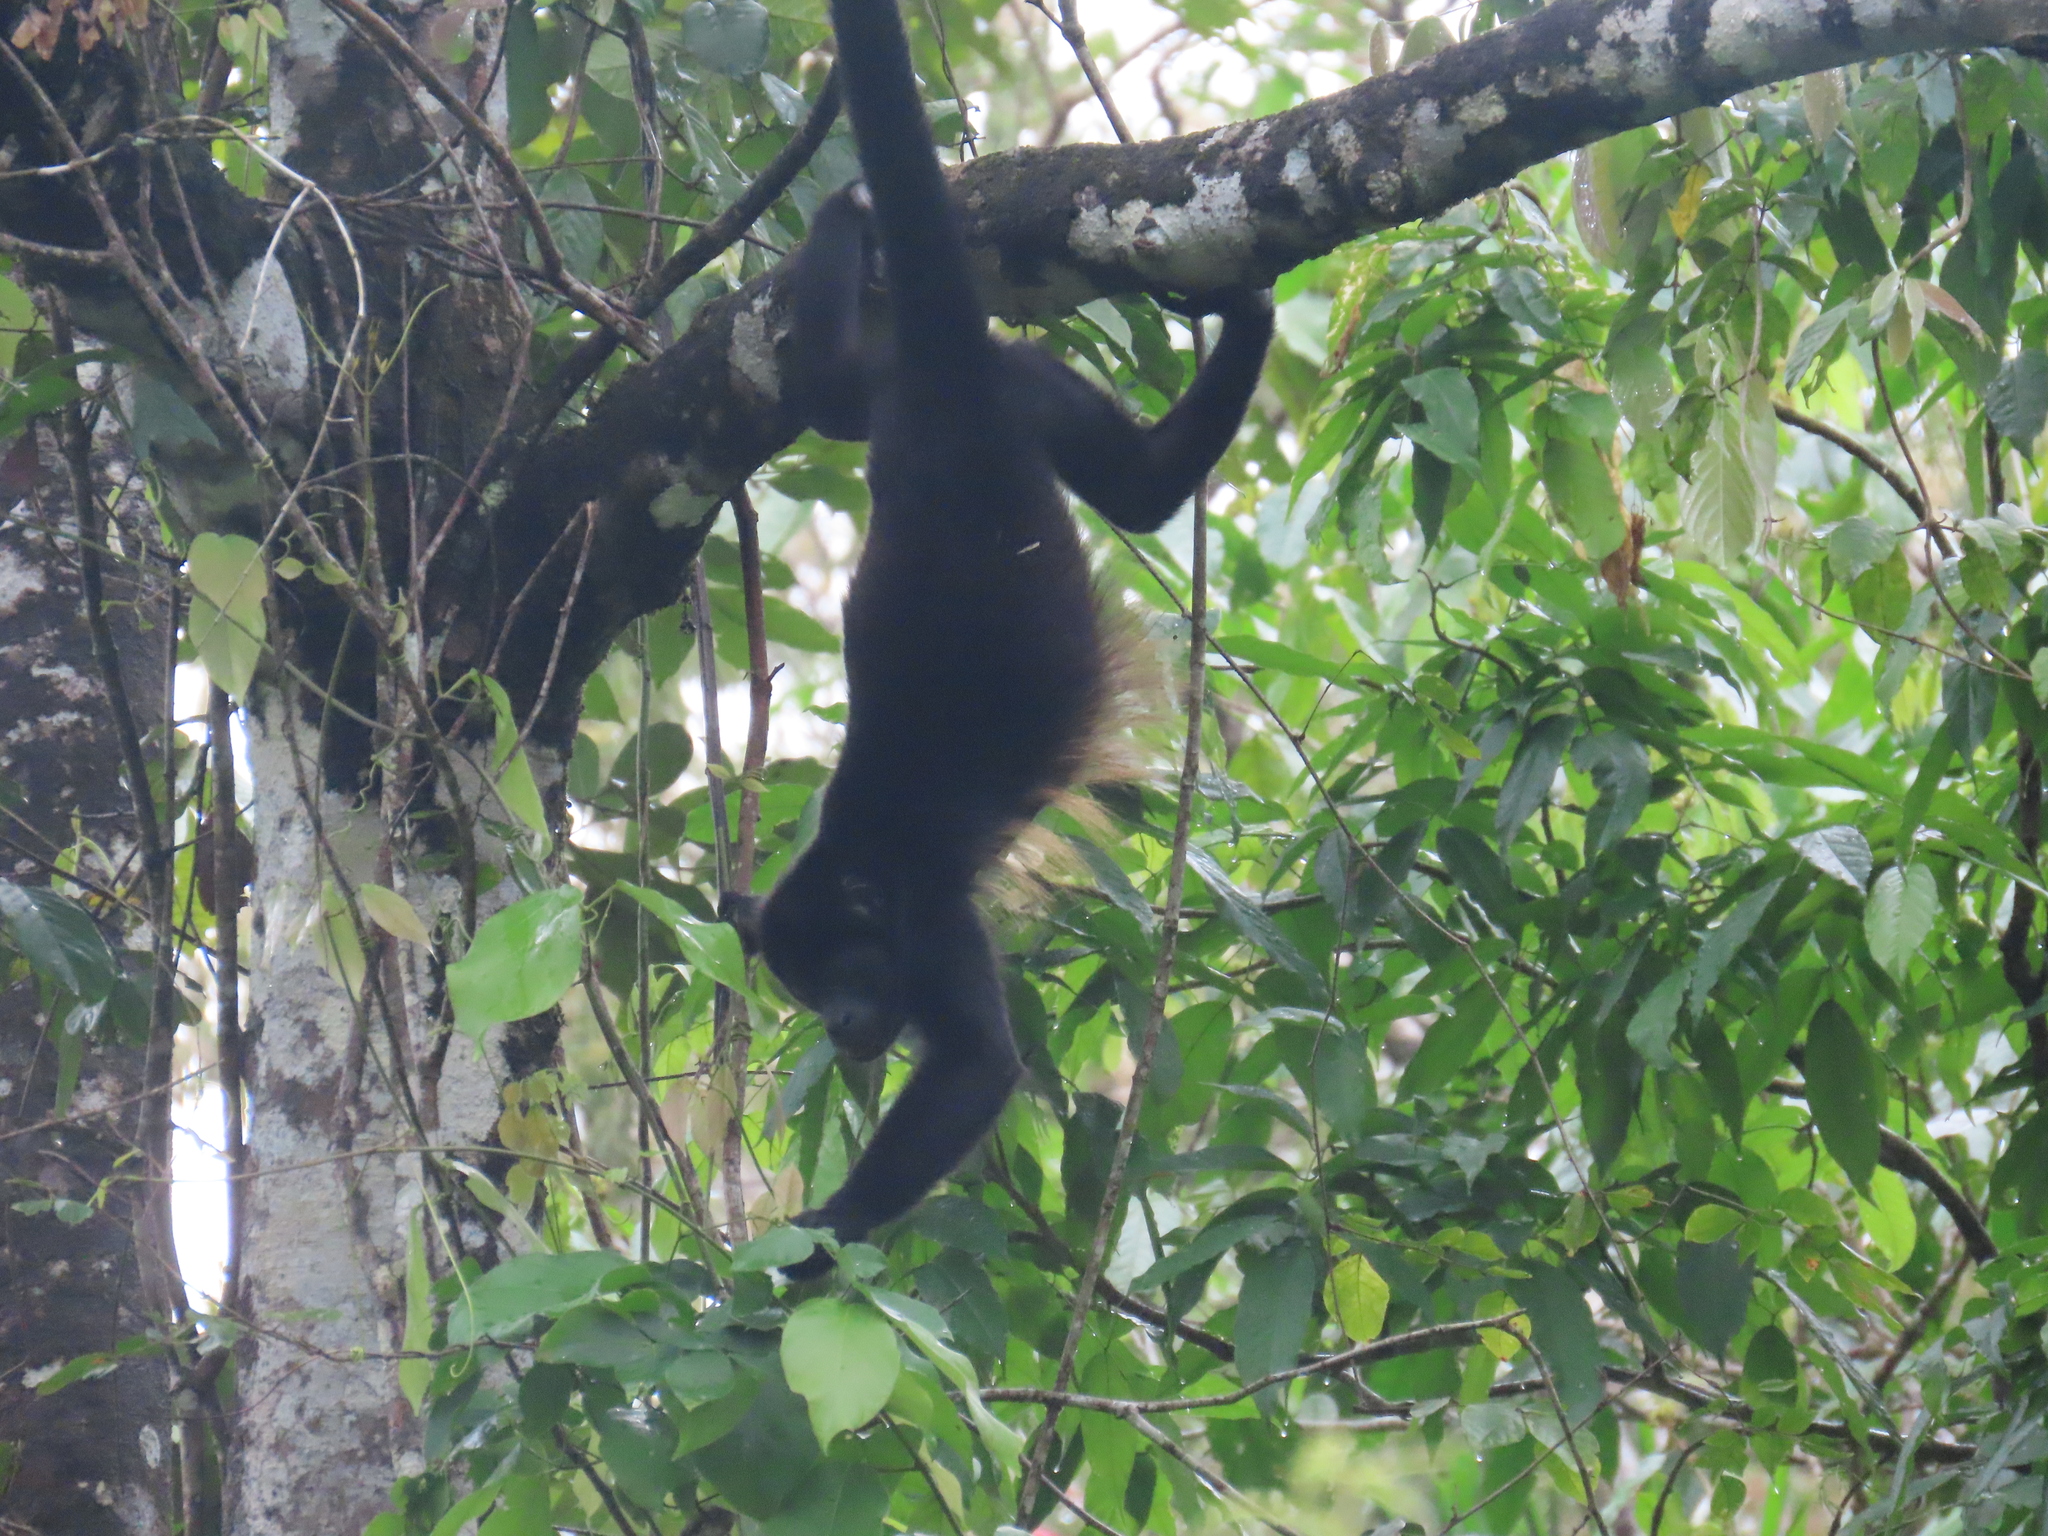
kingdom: Animalia
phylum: Chordata
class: Mammalia
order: Primates
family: Atelidae
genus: Alouatta
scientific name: Alouatta palliata
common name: Mantled howler
